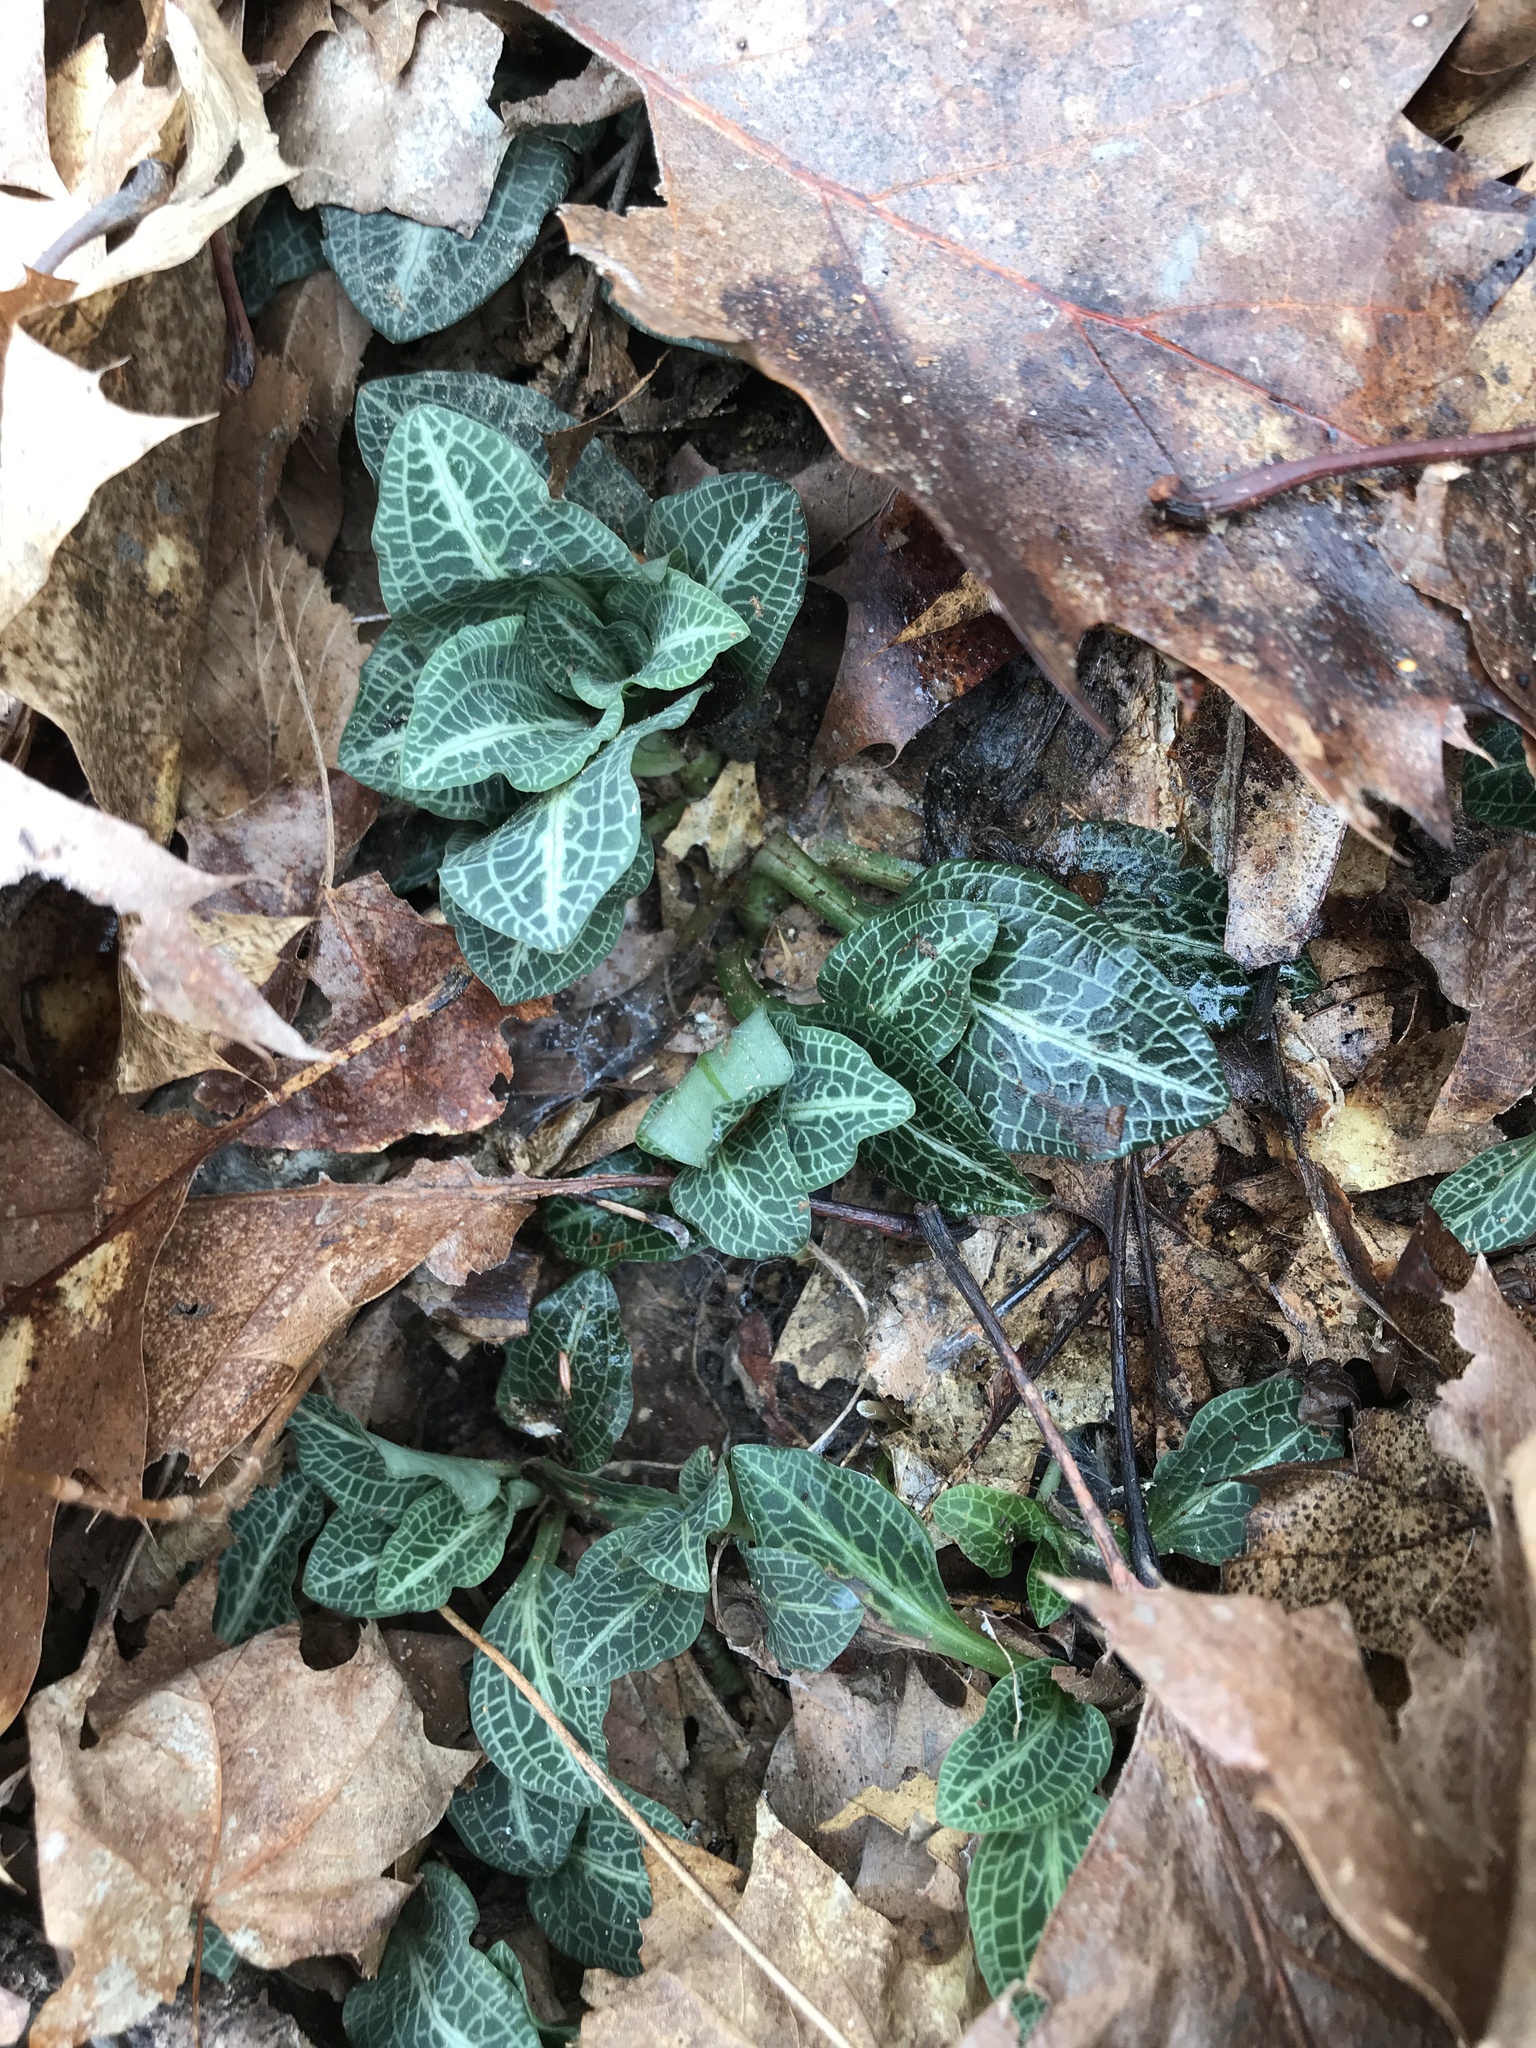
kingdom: Plantae
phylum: Tracheophyta
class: Liliopsida
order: Asparagales
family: Orchidaceae
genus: Goodyera
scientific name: Goodyera pubescens
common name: Downy rattlesnake-plantain
